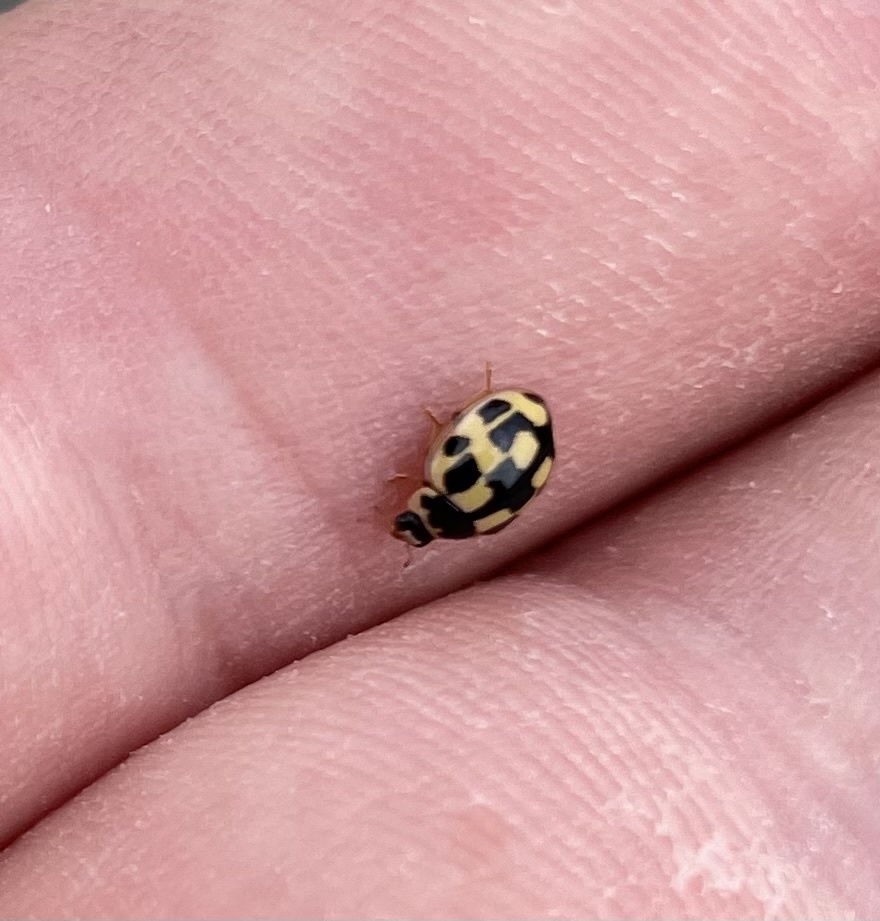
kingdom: Animalia
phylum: Arthropoda
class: Insecta
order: Coleoptera
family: Coccinellidae
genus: Propylaea
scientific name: Propylaea quatuordecimpunctata
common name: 14-spotted ladybird beetle
